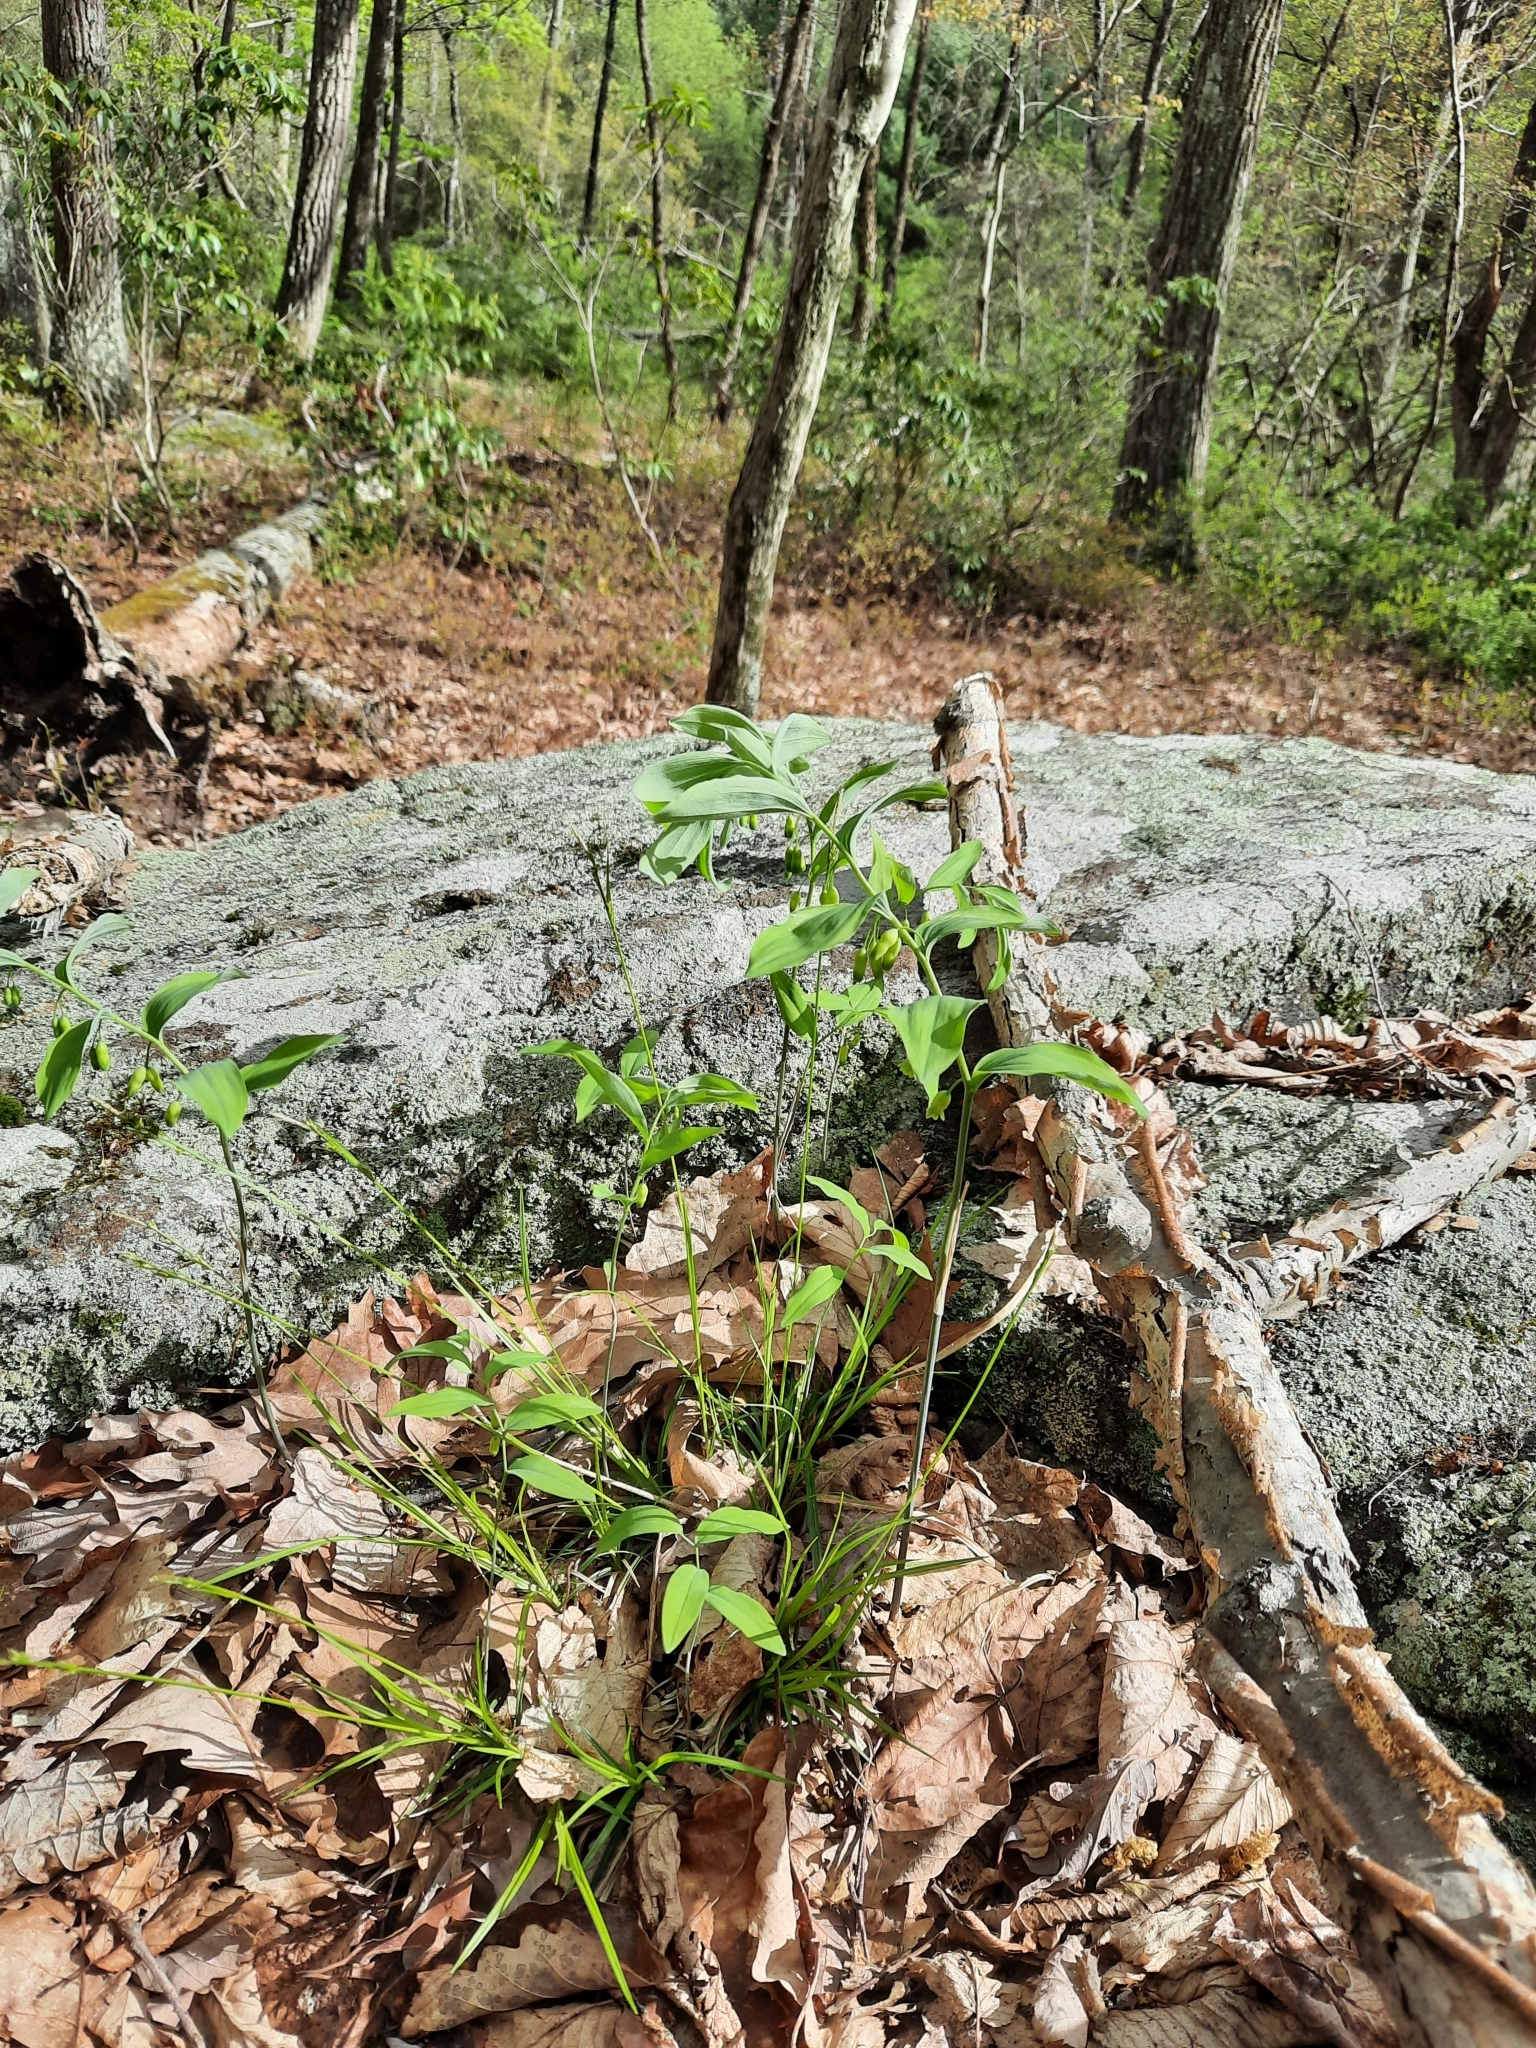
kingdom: Plantae
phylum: Tracheophyta
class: Liliopsida
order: Asparagales
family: Asparagaceae
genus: Polygonatum
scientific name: Polygonatum pubescens
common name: Downy solomon's seal
